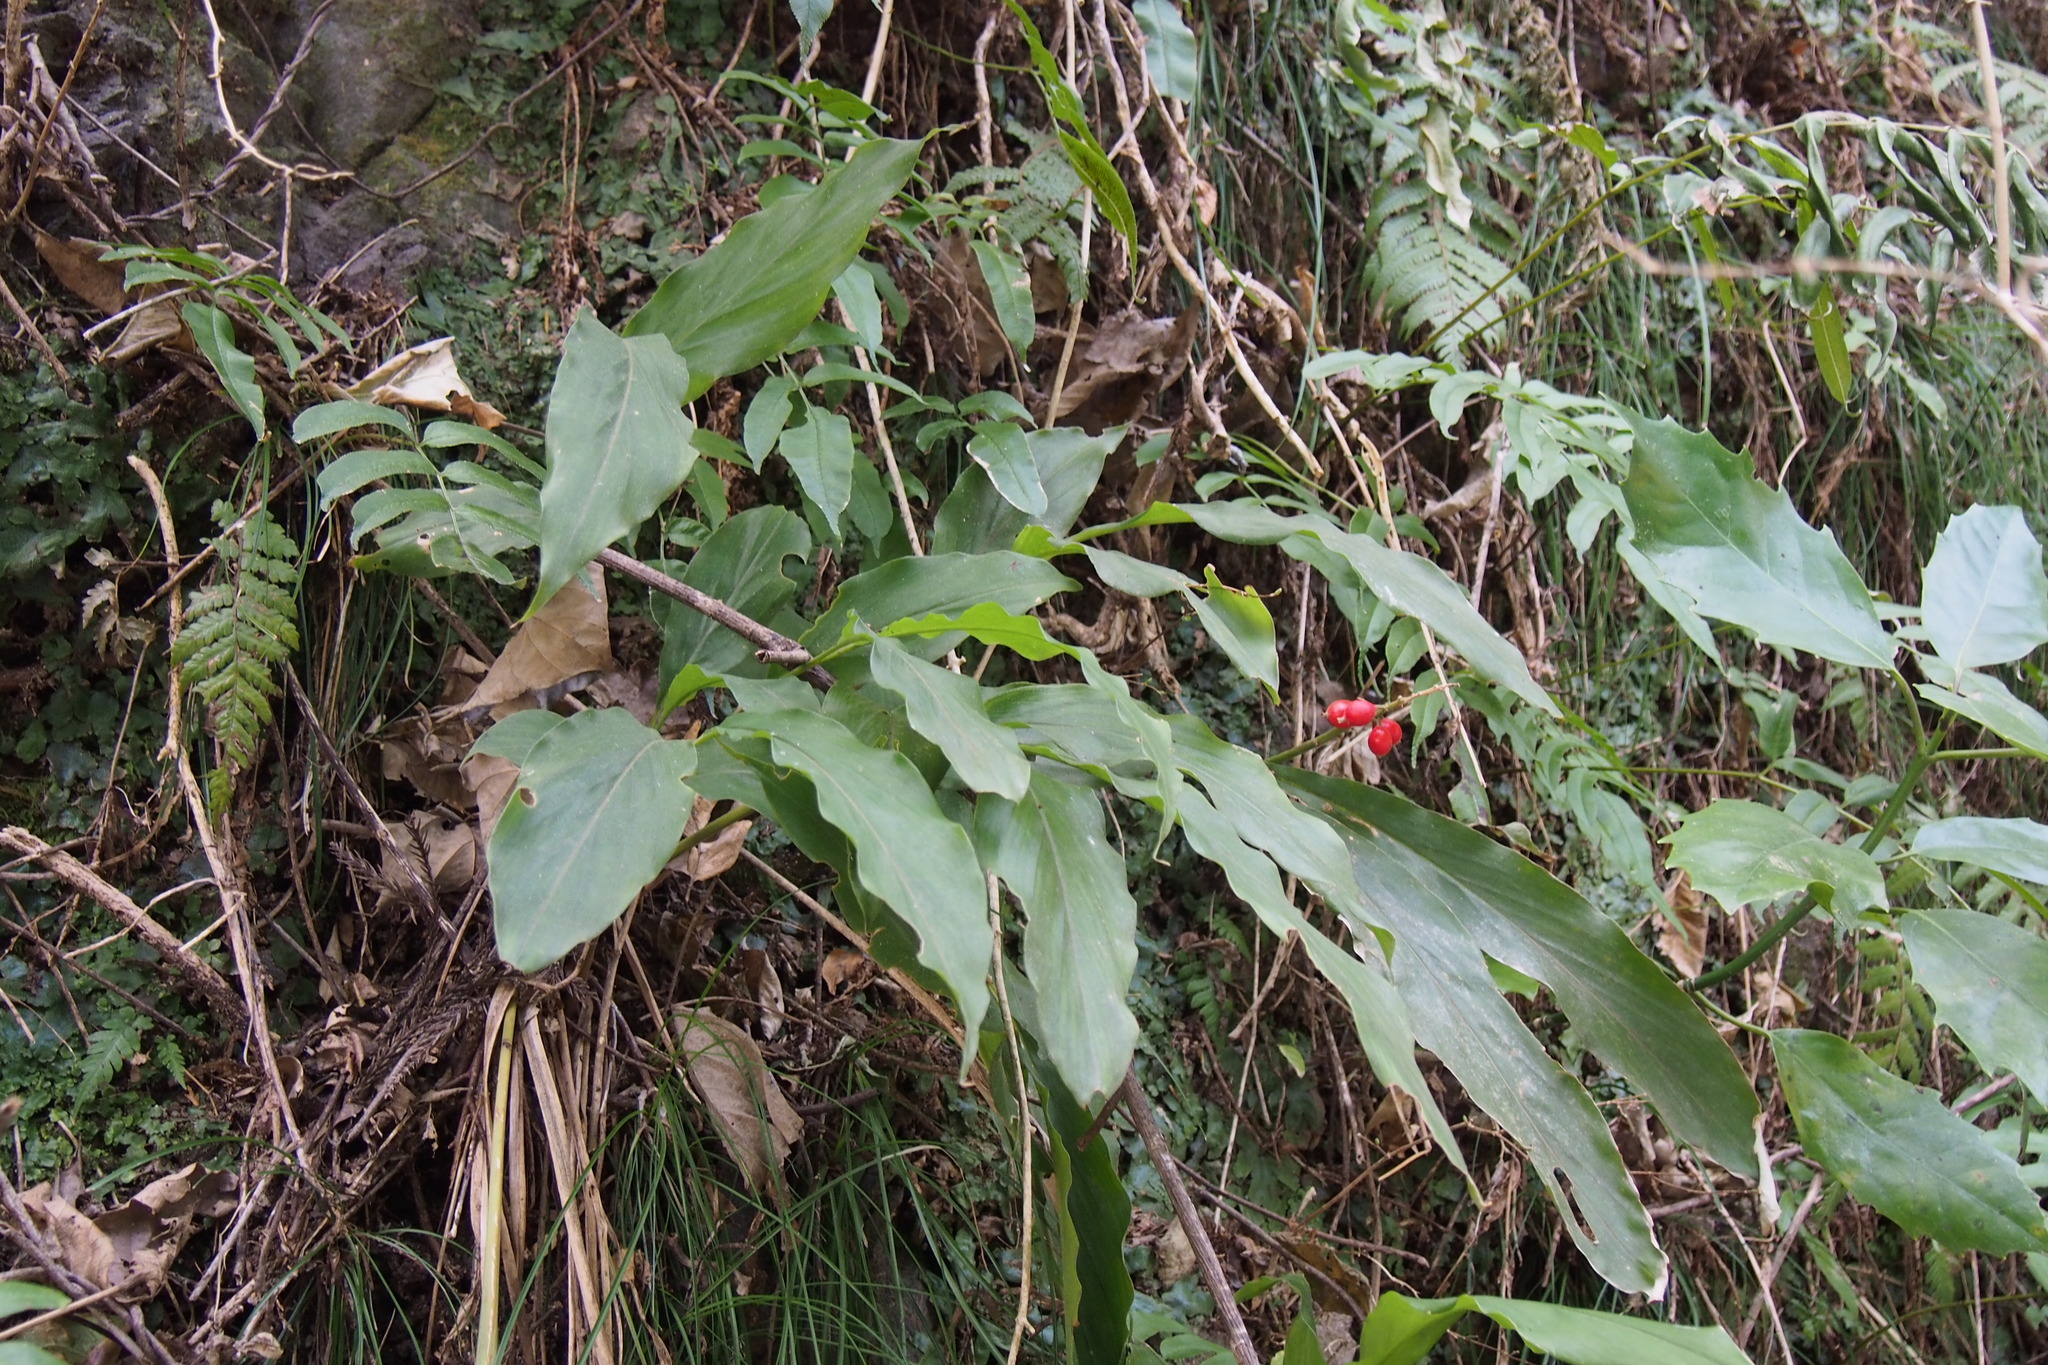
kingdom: Plantae
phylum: Tracheophyta
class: Liliopsida
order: Zingiberales
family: Zingiberaceae
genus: Alpinia
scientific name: Alpinia japonica
